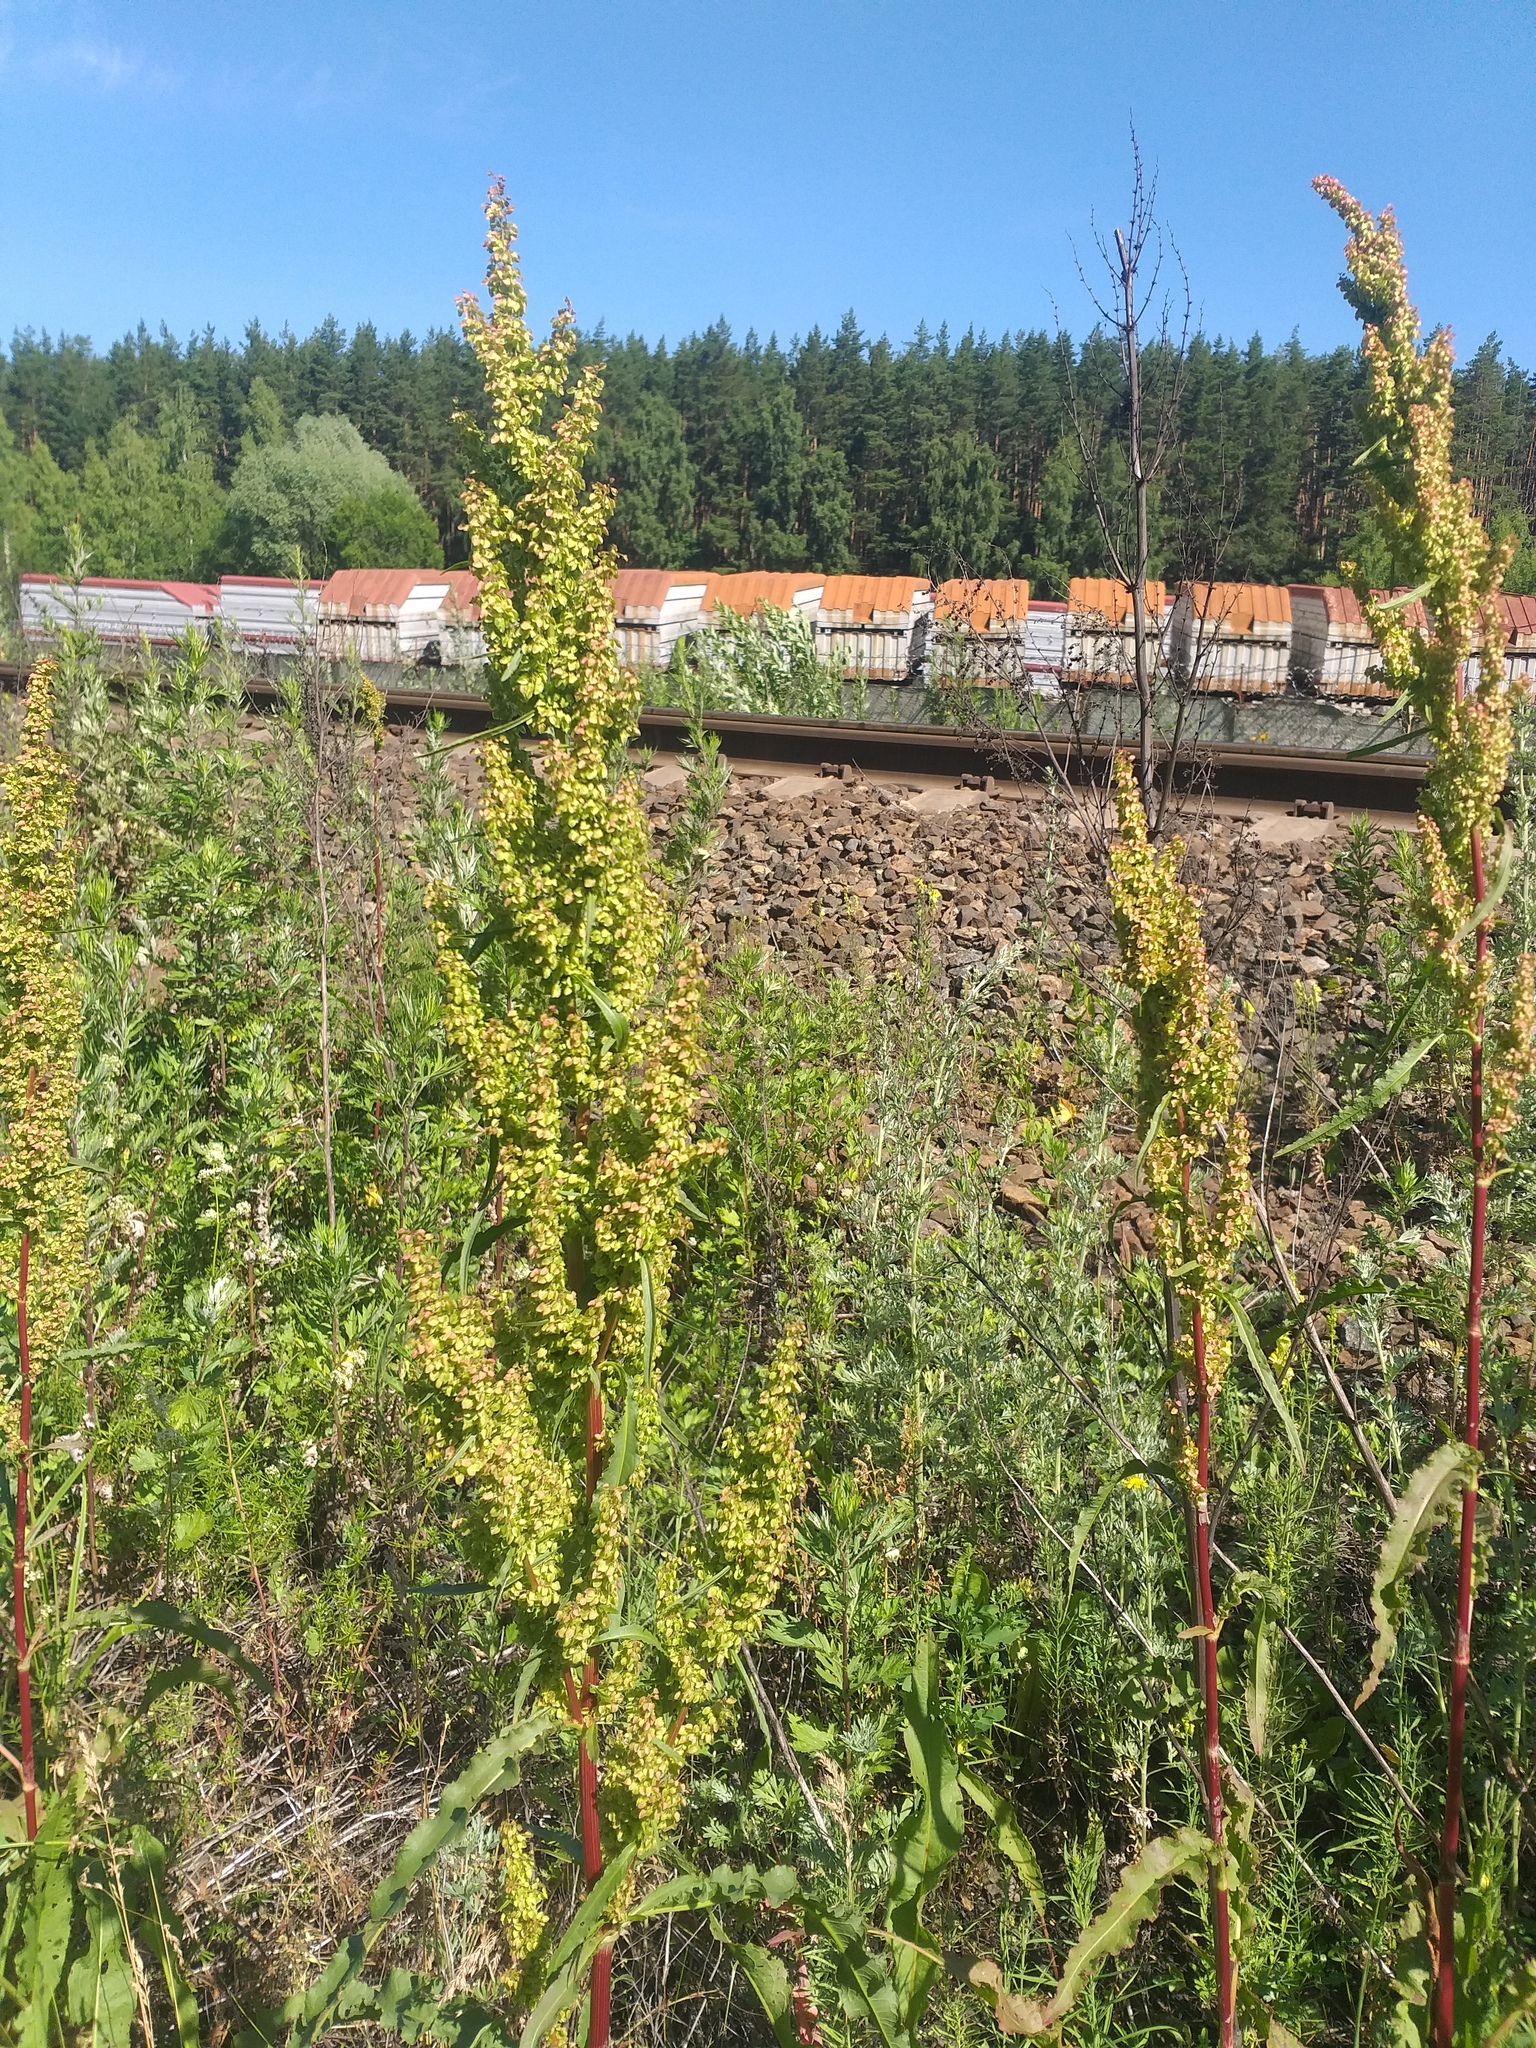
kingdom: Plantae
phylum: Tracheophyta
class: Magnoliopsida
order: Caryophyllales
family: Polygonaceae
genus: Rumex
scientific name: Rumex pseudonatronatus
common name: Field dock
